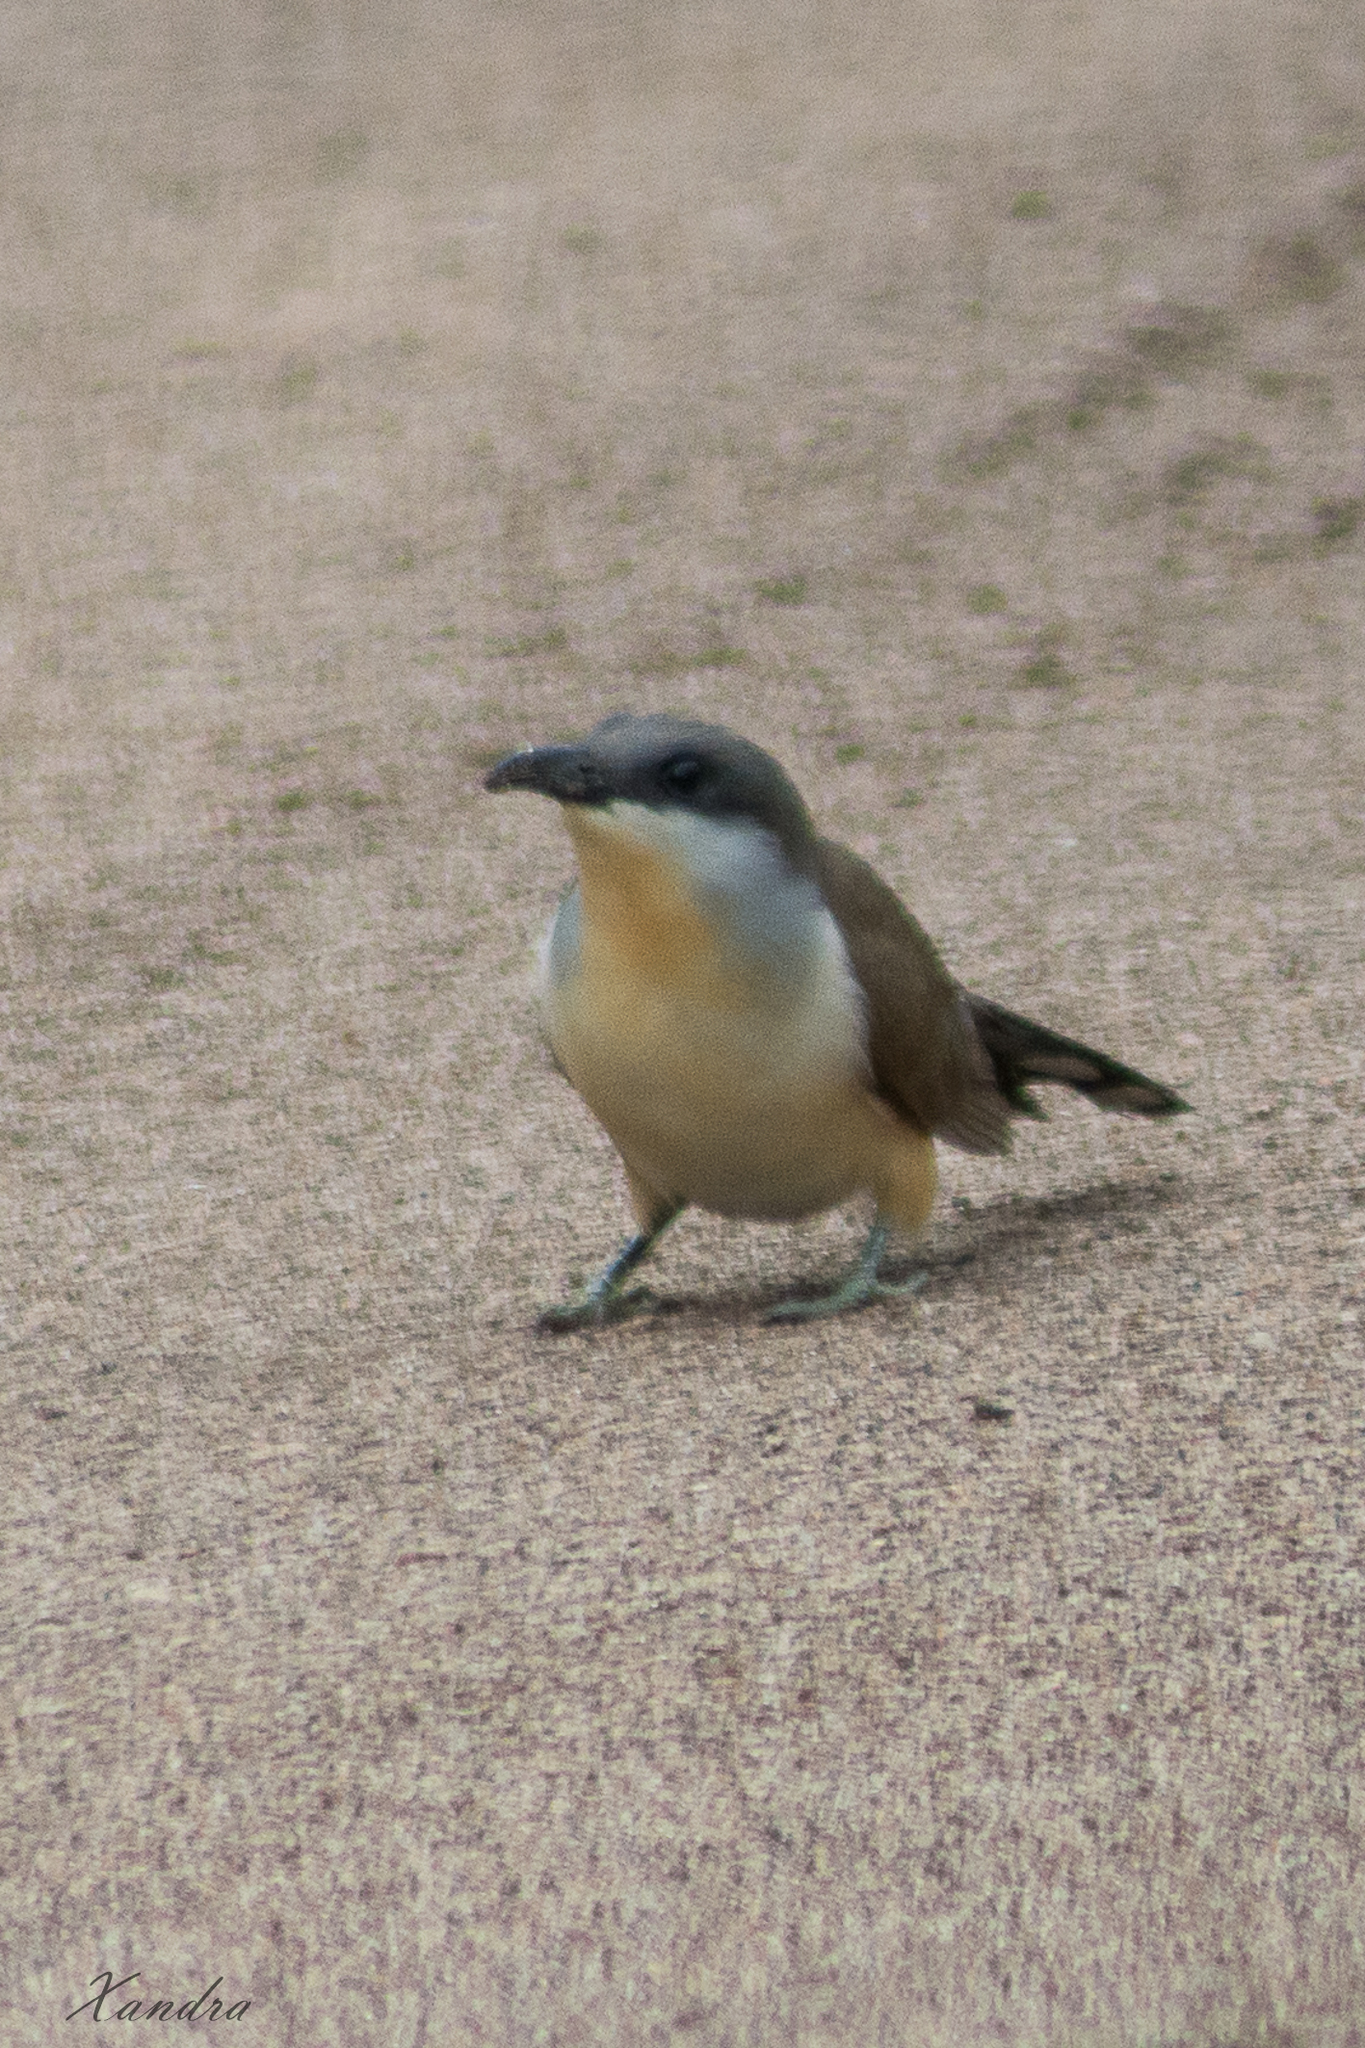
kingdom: Animalia
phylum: Chordata
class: Aves
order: Cuculiformes
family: Cuculidae
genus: Coccyzus
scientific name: Coccyzus melacoryphus
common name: Dark-billed cuckoo
